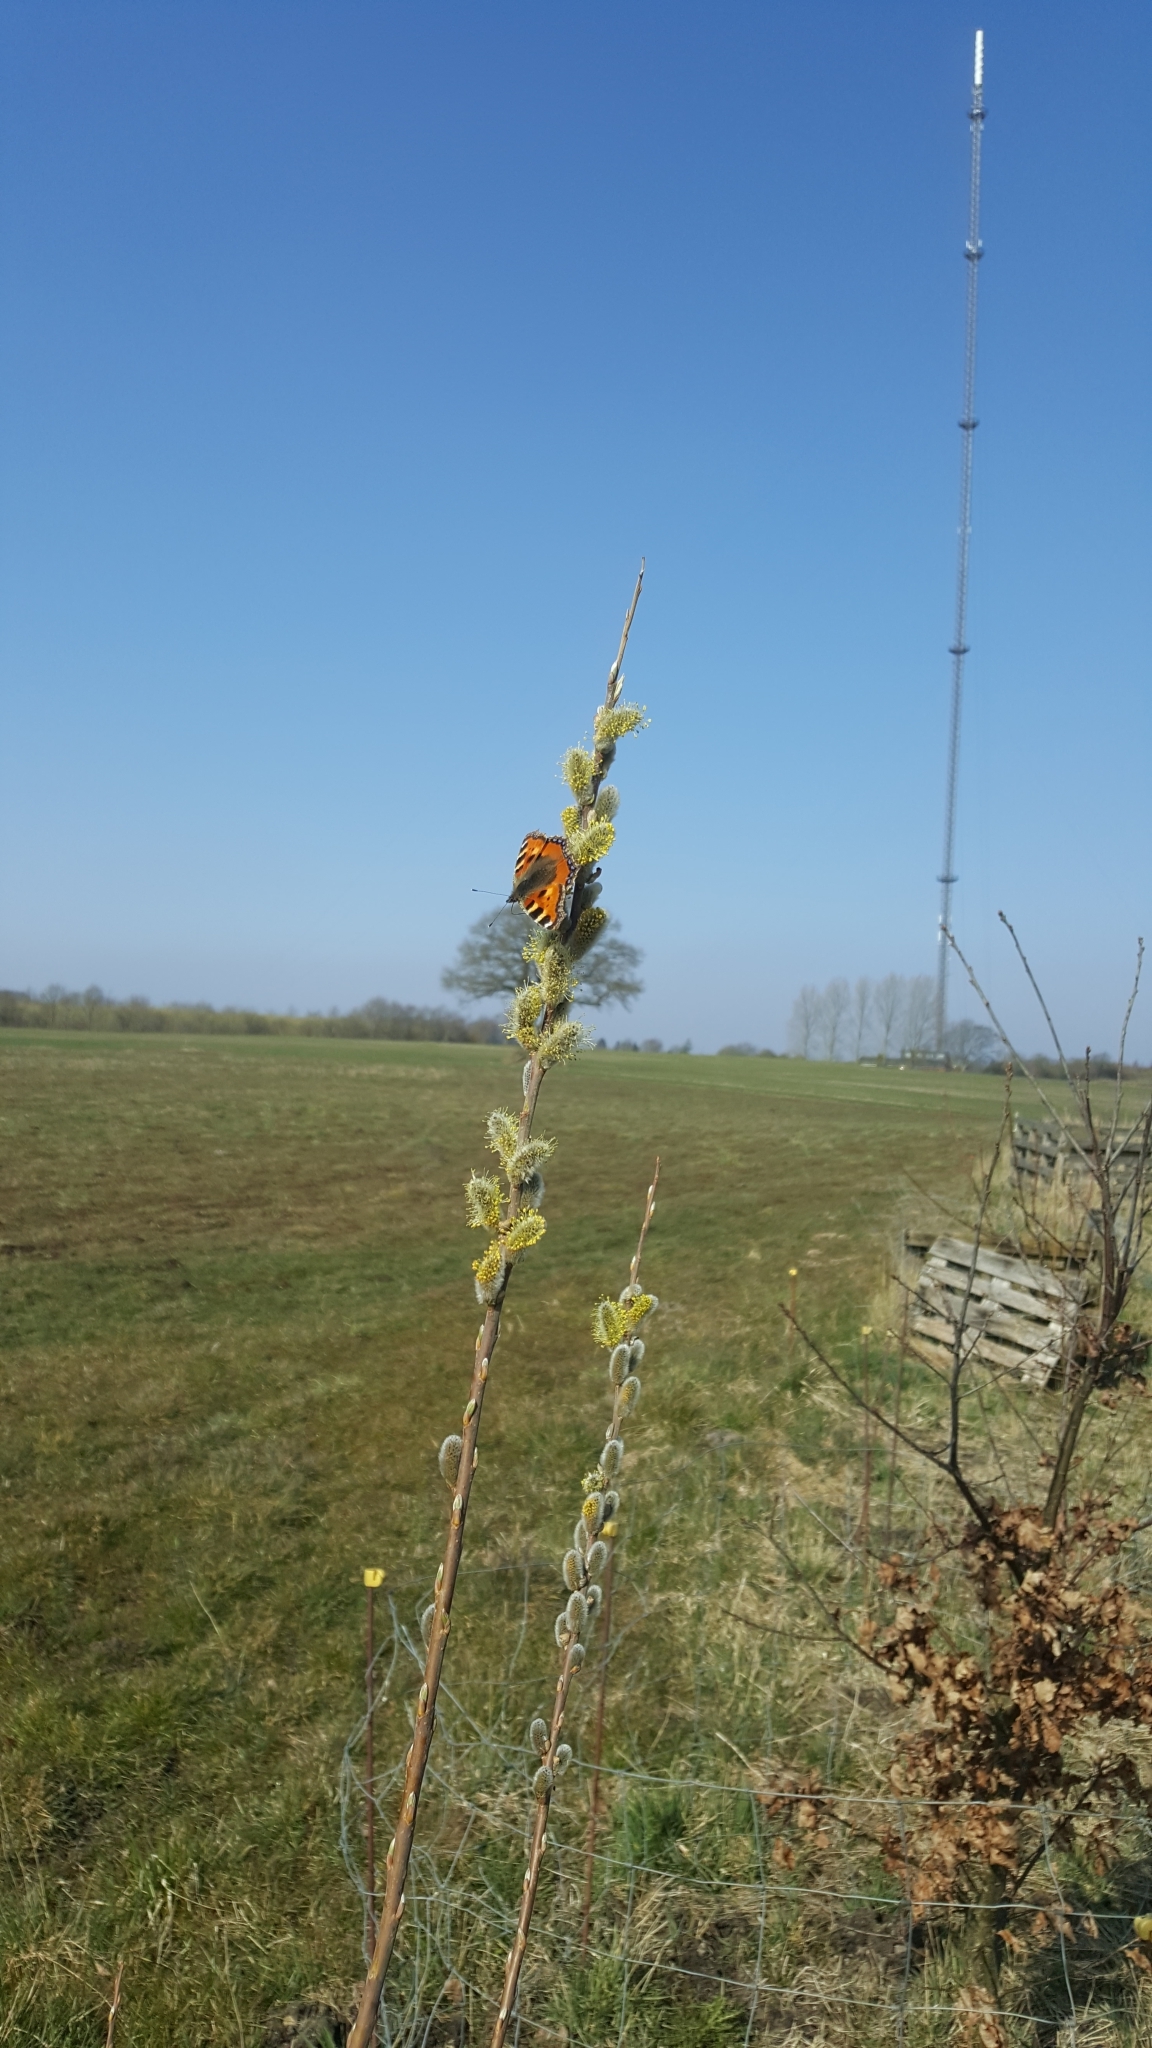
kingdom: Animalia
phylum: Arthropoda
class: Insecta
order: Lepidoptera
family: Nymphalidae
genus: Aglais
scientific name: Aglais urticae
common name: Small tortoiseshell
